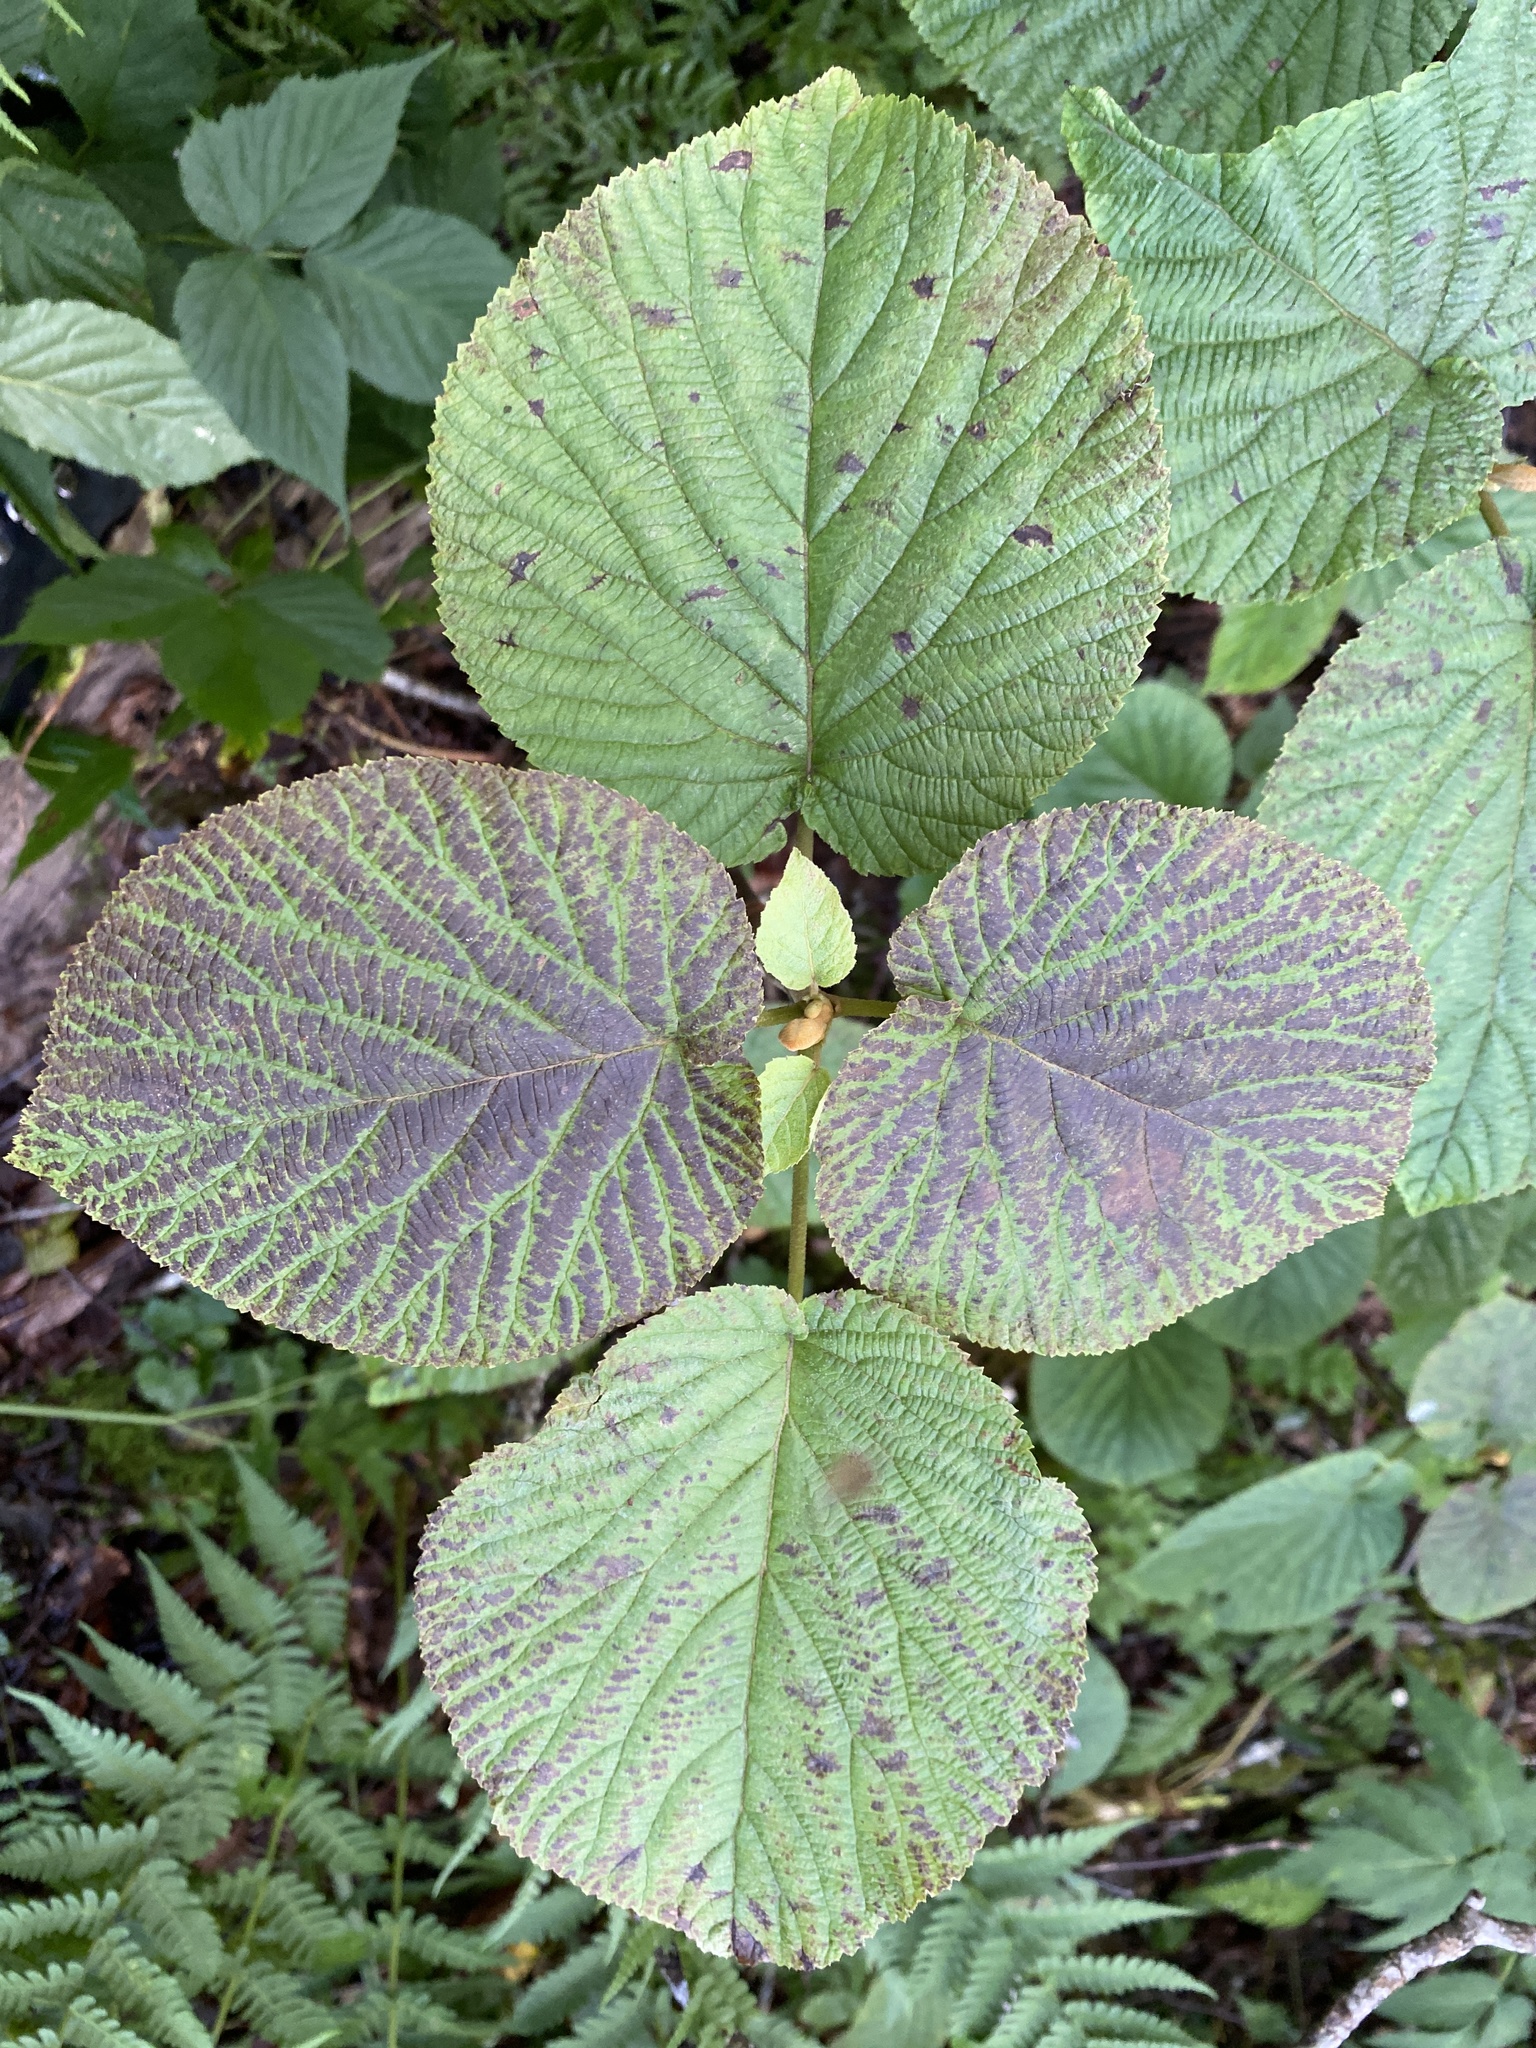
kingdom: Plantae
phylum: Tracheophyta
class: Magnoliopsida
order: Dipsacales
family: Viburnaceae
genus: Viburnum
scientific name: Viburnum lantanoides
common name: Hobblebush
